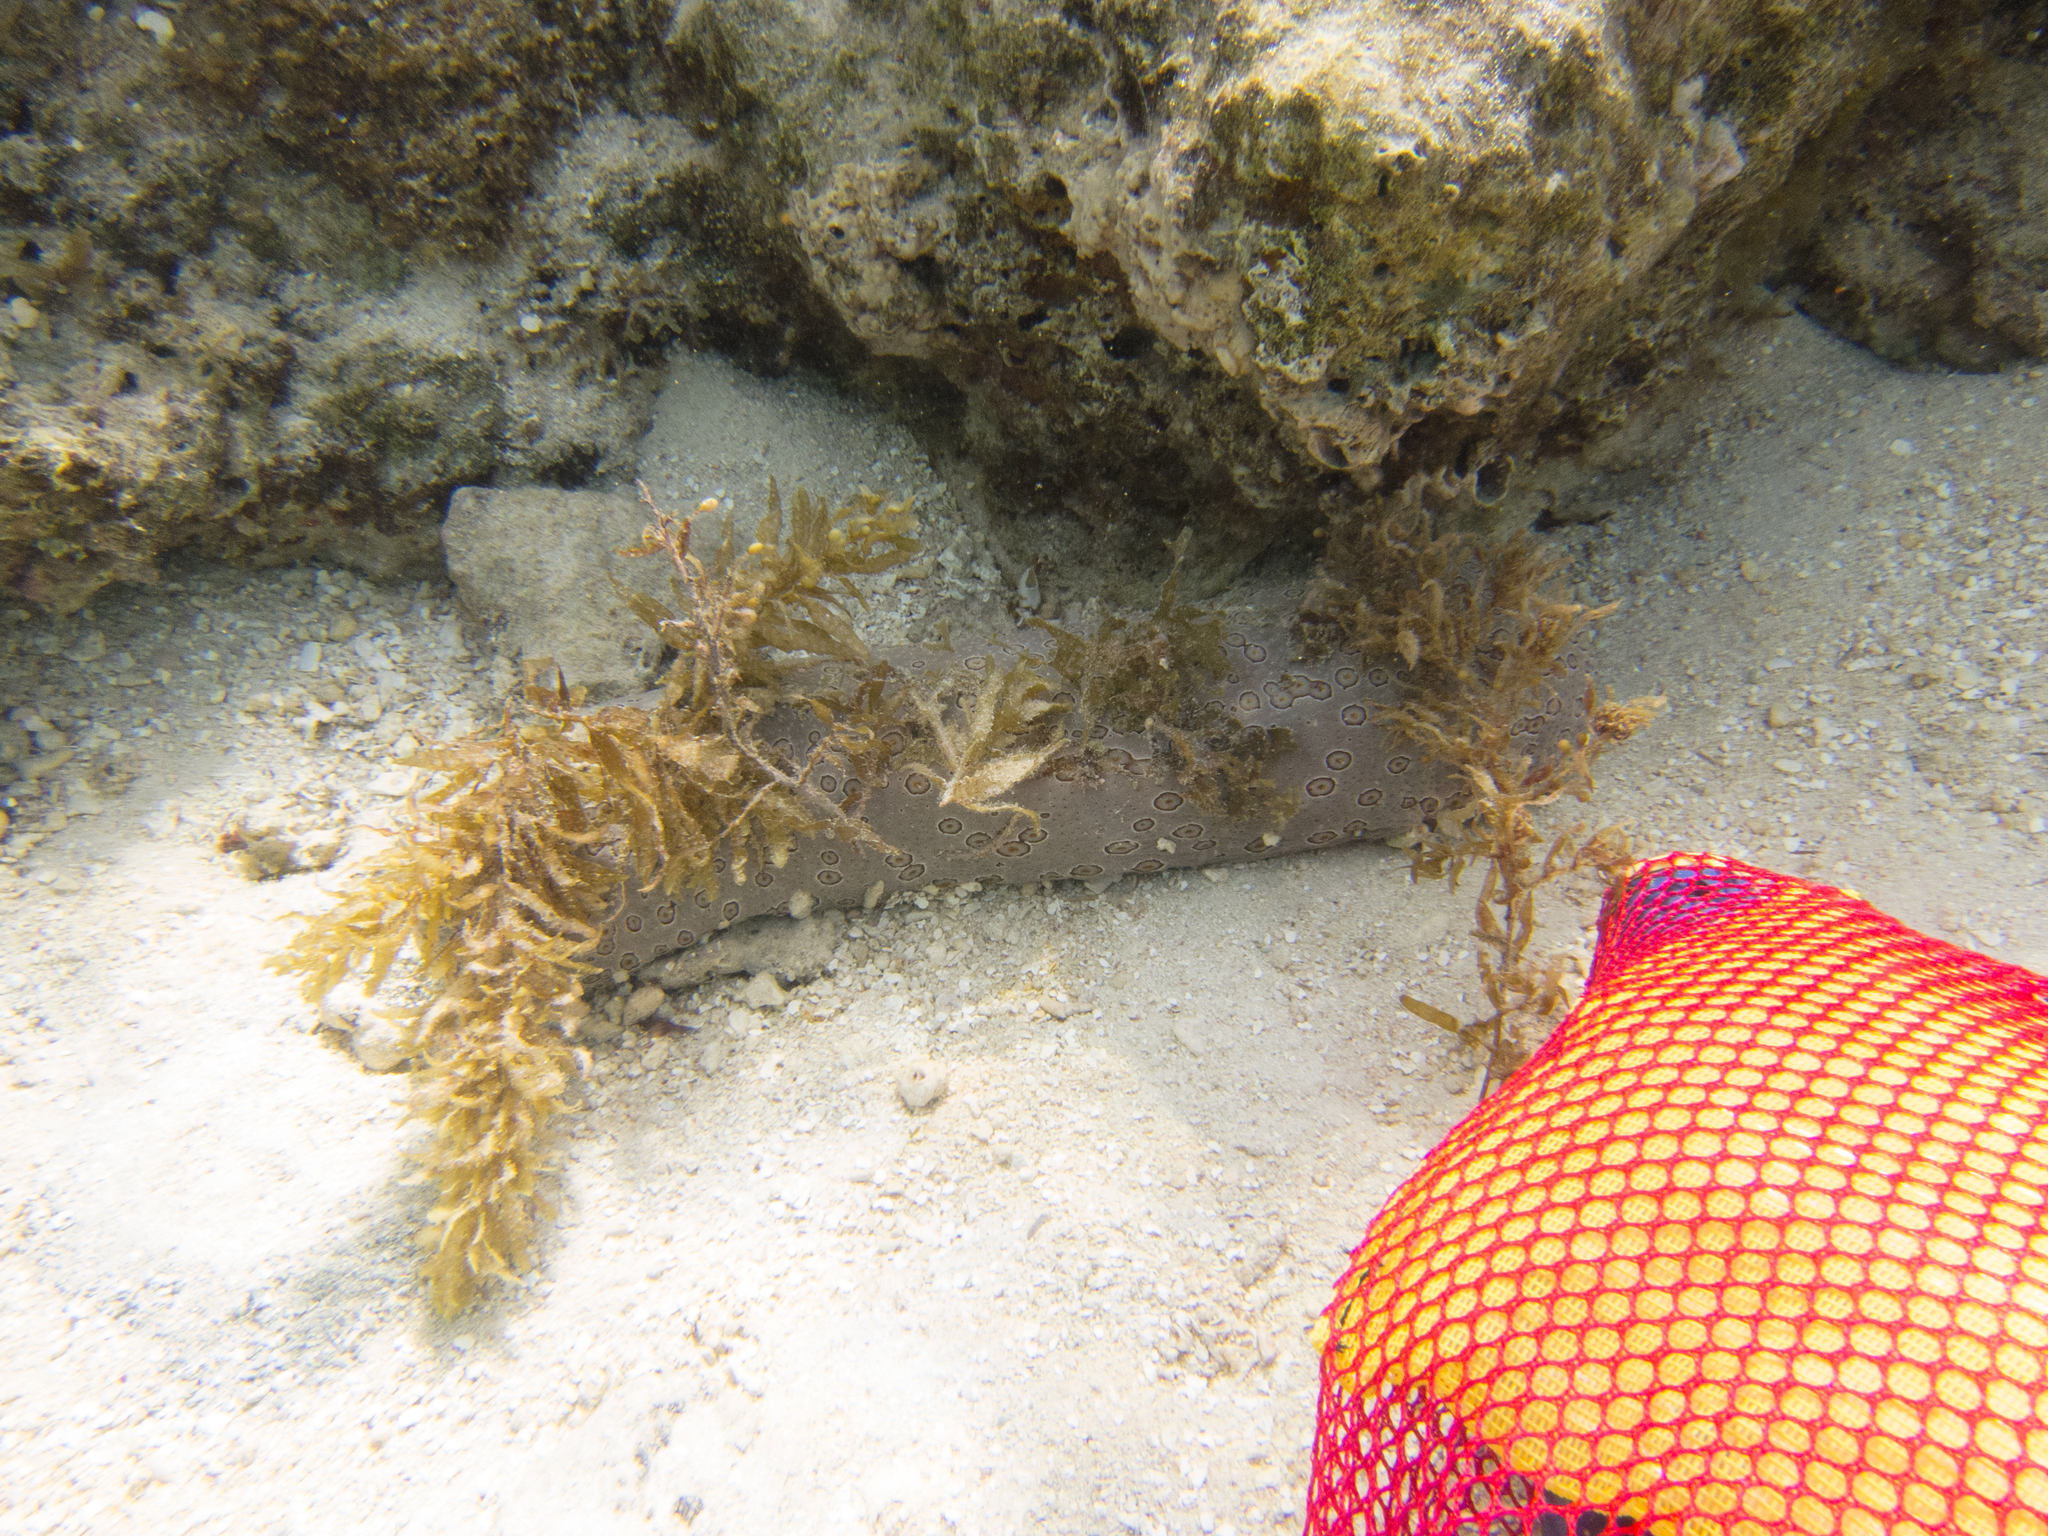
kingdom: Animalia
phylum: Echinodermata
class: Holothuroidea
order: Holothuriida
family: Holothuriidae
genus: Bohadschia
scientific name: Bohadschia argus
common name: Leopardfish
